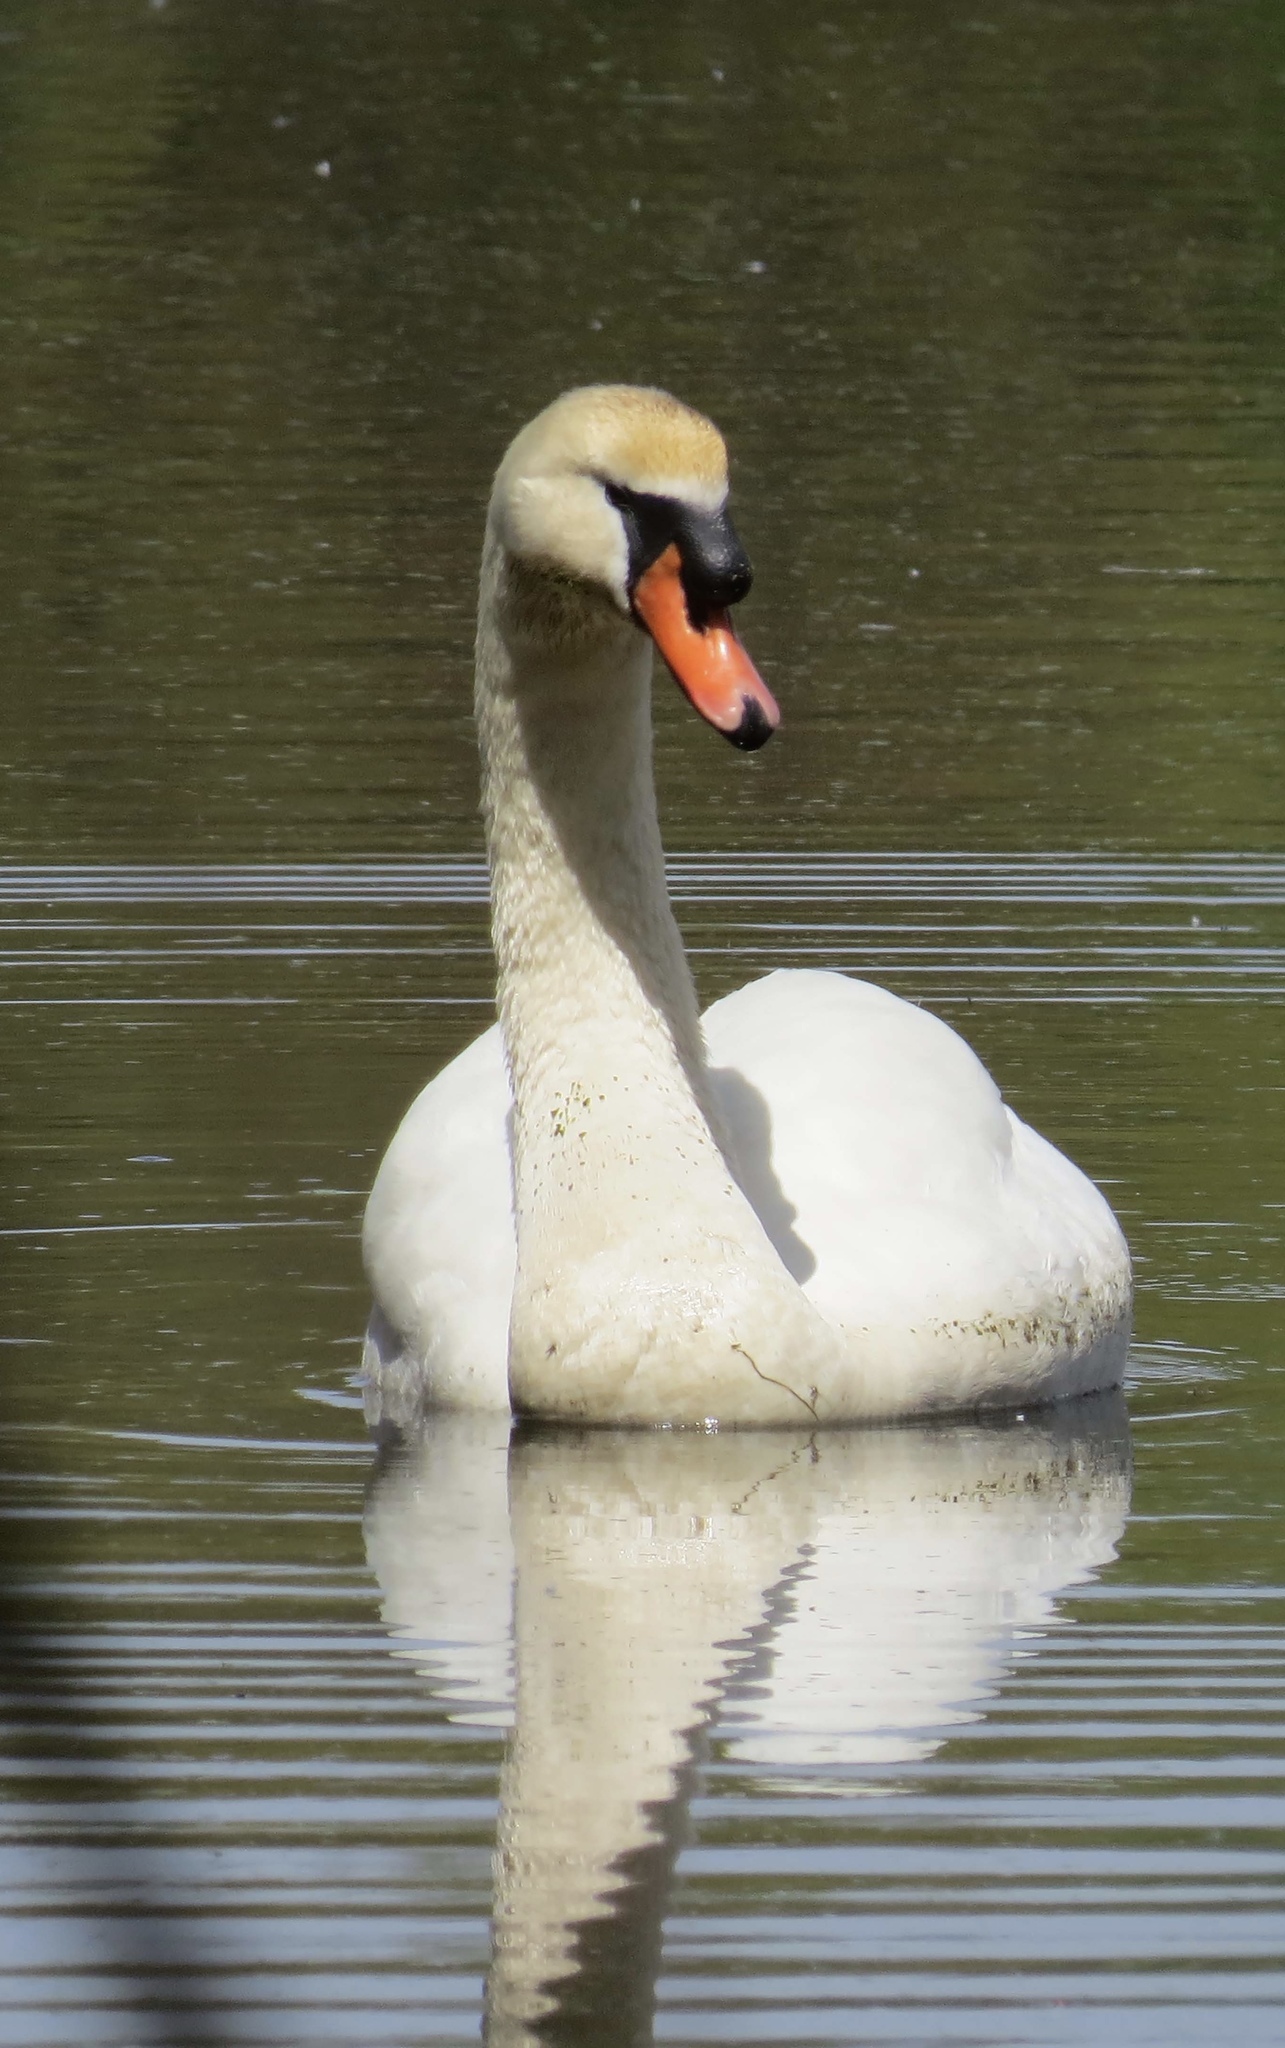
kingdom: Animalia
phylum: Chordata
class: Aves
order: Anseriformes
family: Anatidae
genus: Cygnus
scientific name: Cygnus olor
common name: Mute swan
